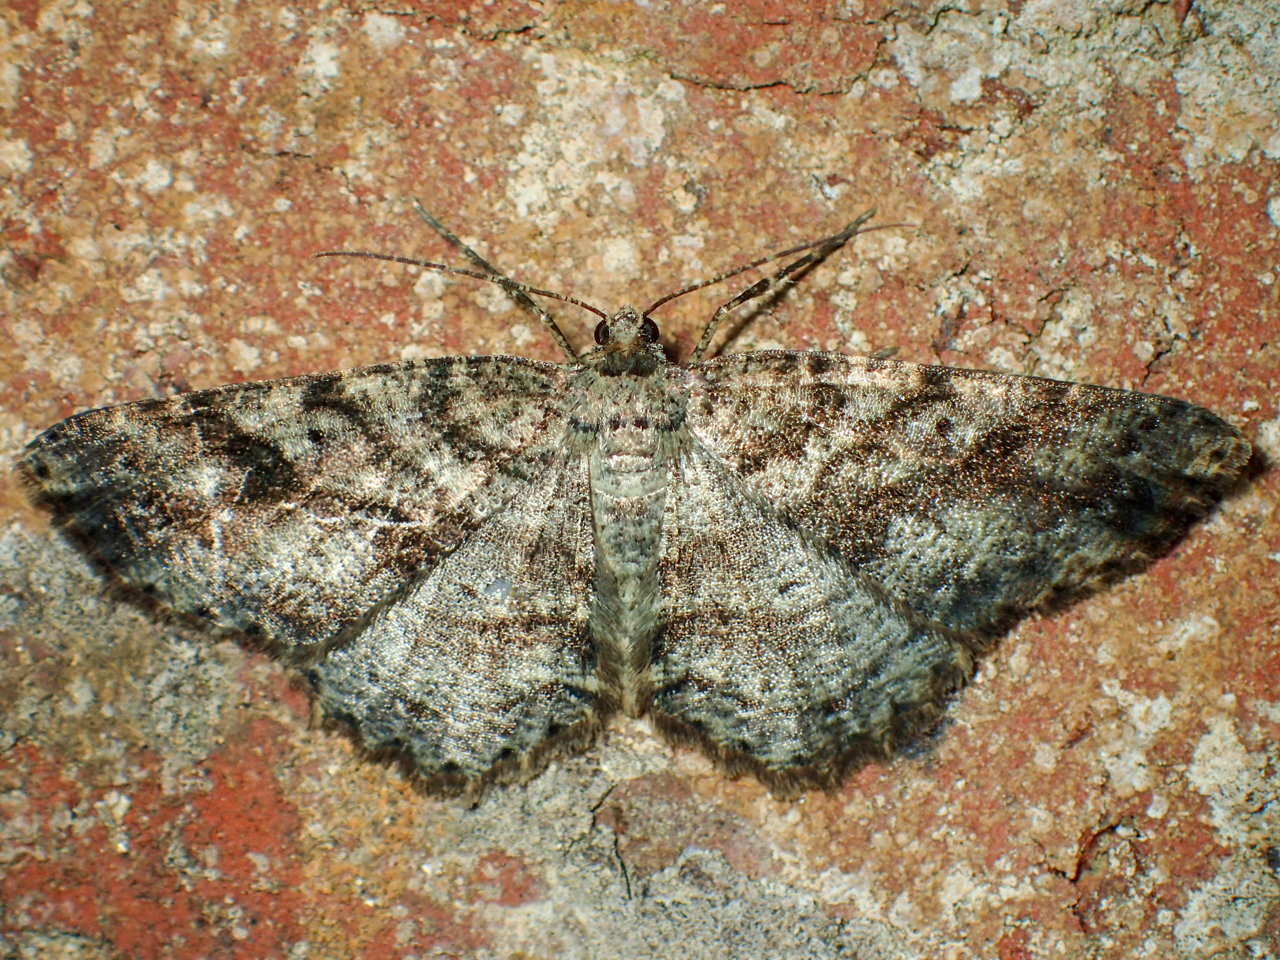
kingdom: Animalia
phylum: Arthropoda
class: Insecta
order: Lepidoptera
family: Geometridae
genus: Melanolophia
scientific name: Melanolophia canadaria
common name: Canadian melanolophia
